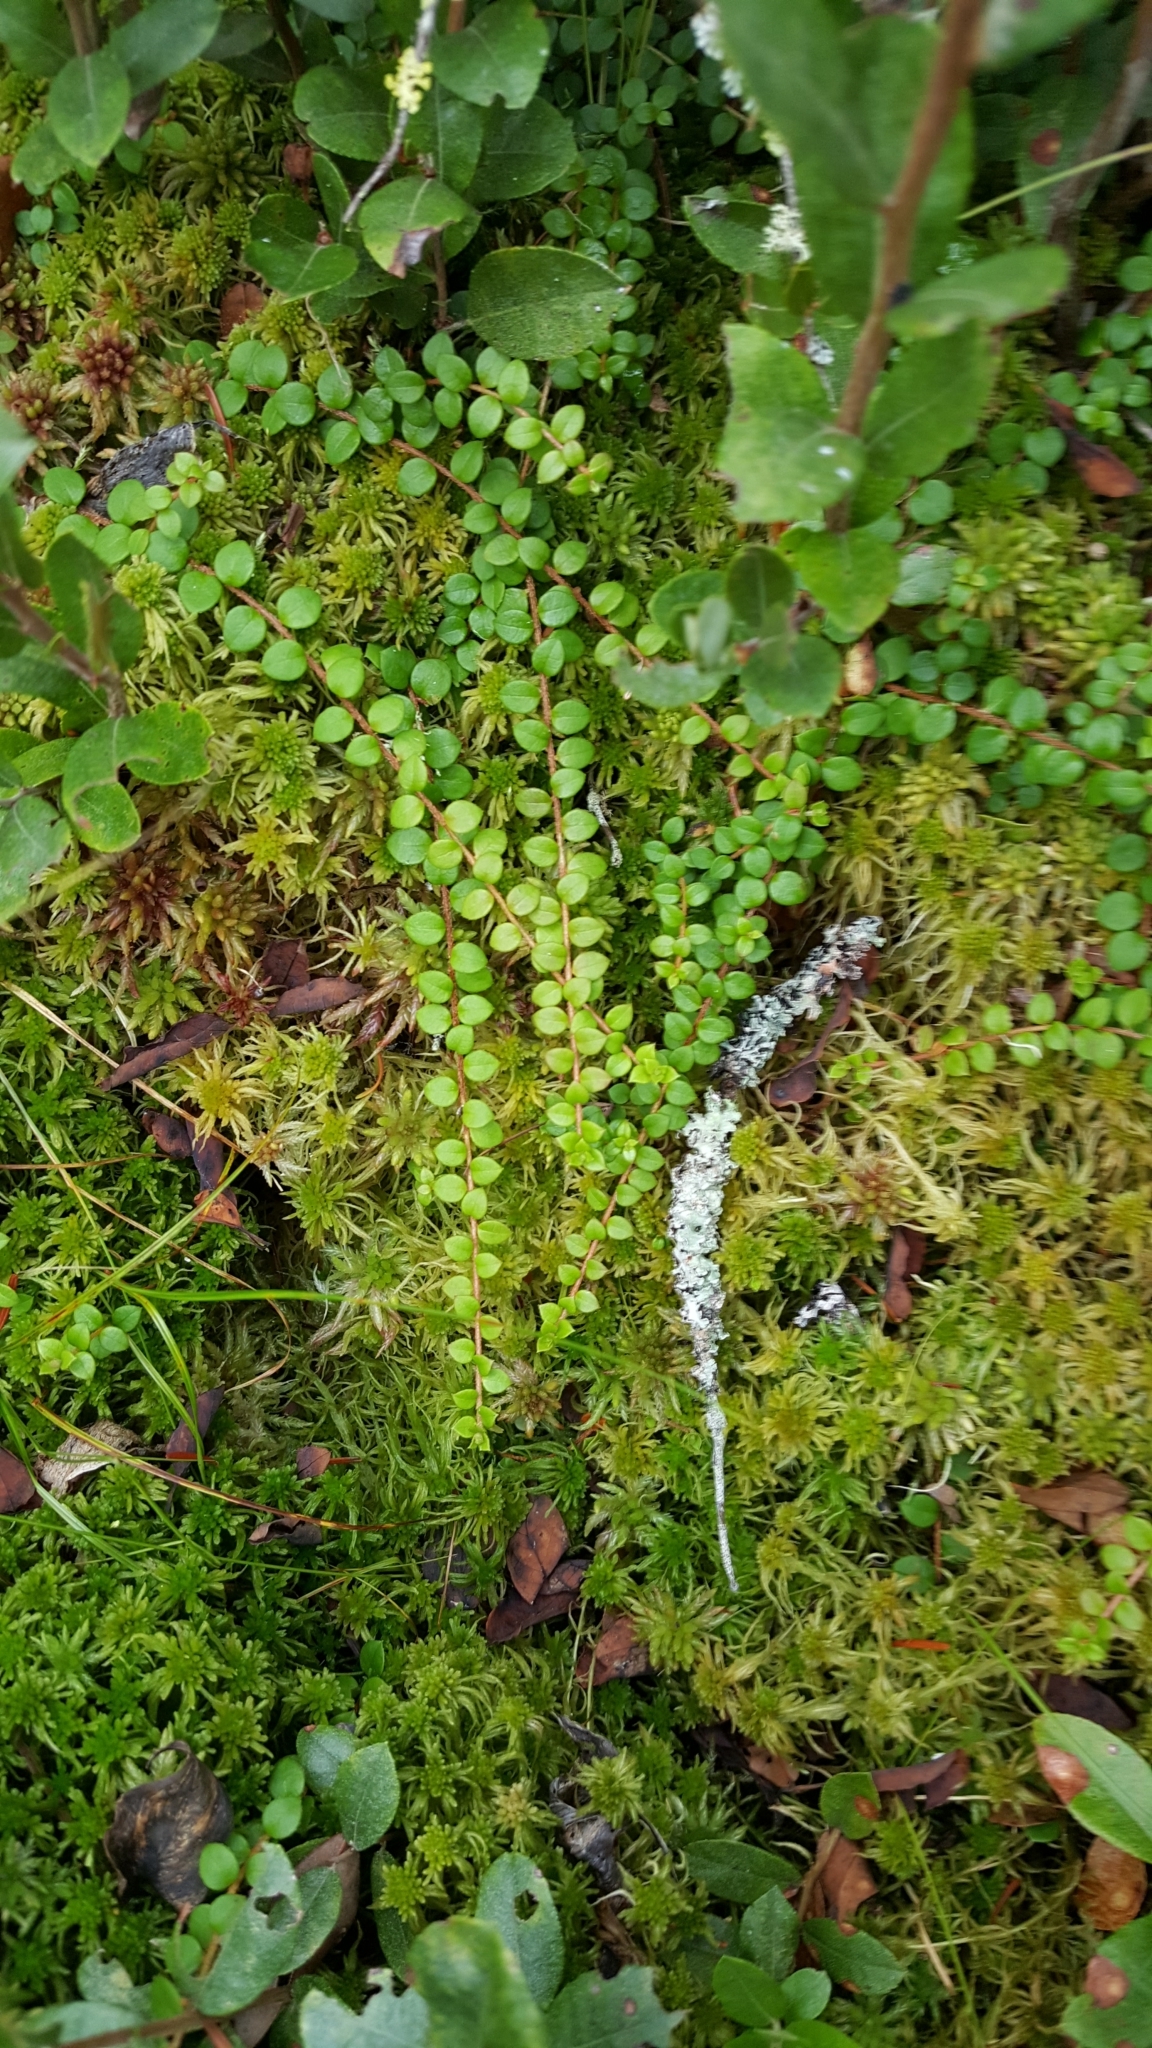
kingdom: Plantae
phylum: Tracheophyta
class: Magnoliopsida
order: Ericales
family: Ericaceae
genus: Gaultheria
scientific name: Gaultheria hispidula
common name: Cancer wintergreen
